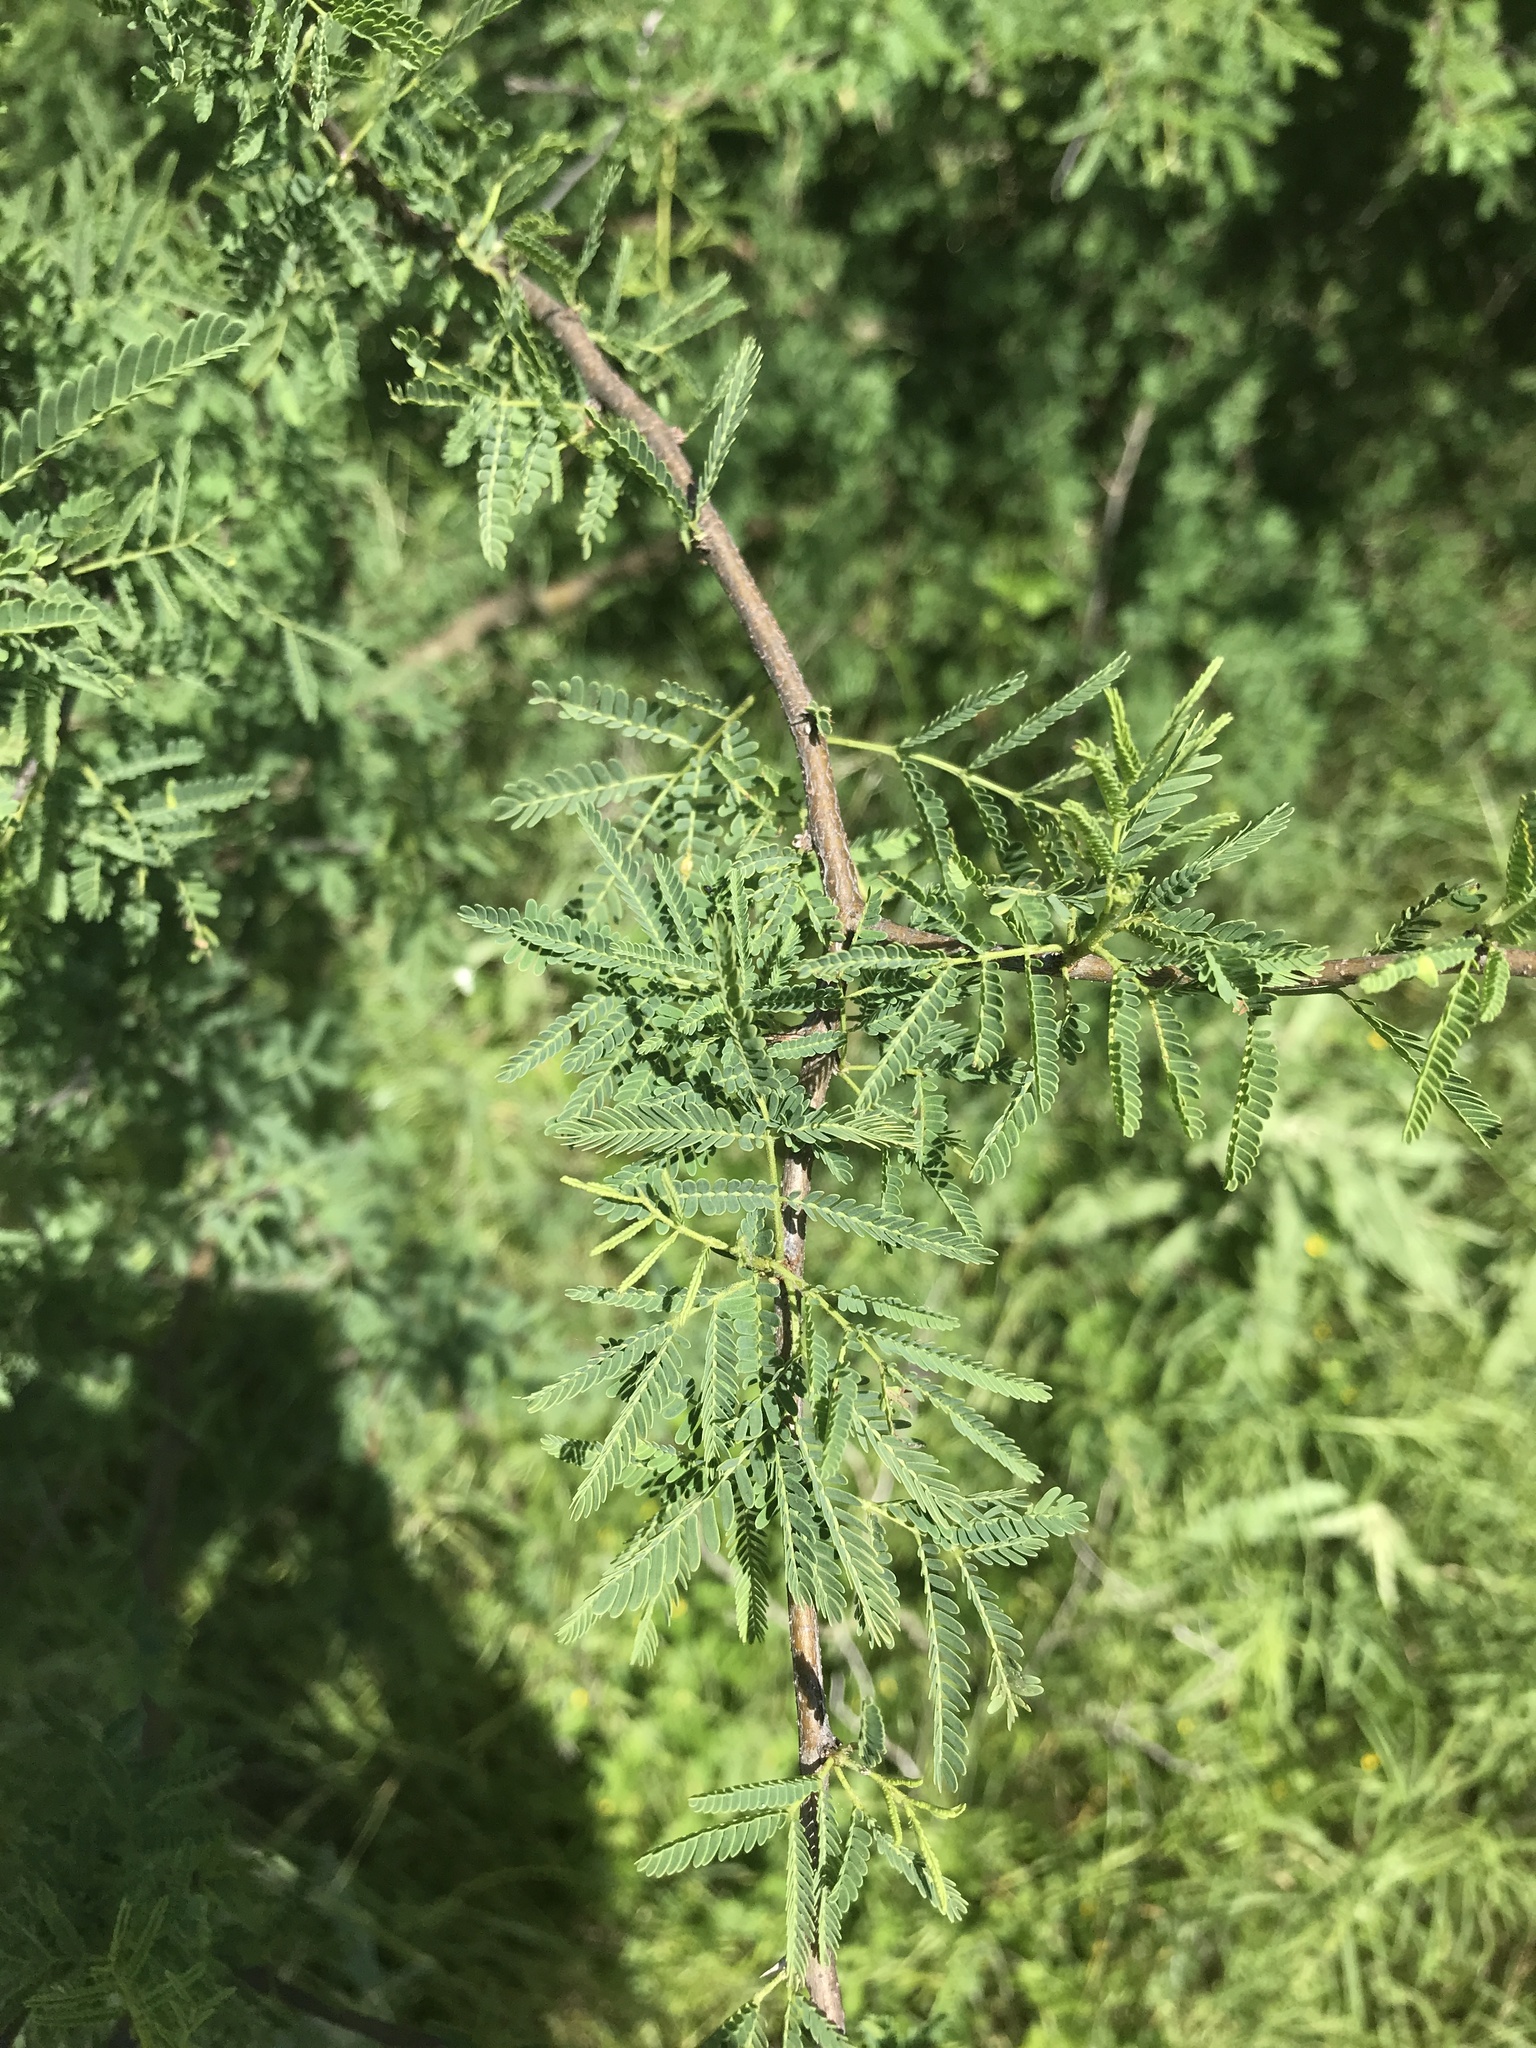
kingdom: Plantae
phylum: Tracheophyta
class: Magnoliopsida
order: Fabales
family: Fabaceae
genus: Vachellia
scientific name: Vachellia farnesiana
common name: Sweet acacia
